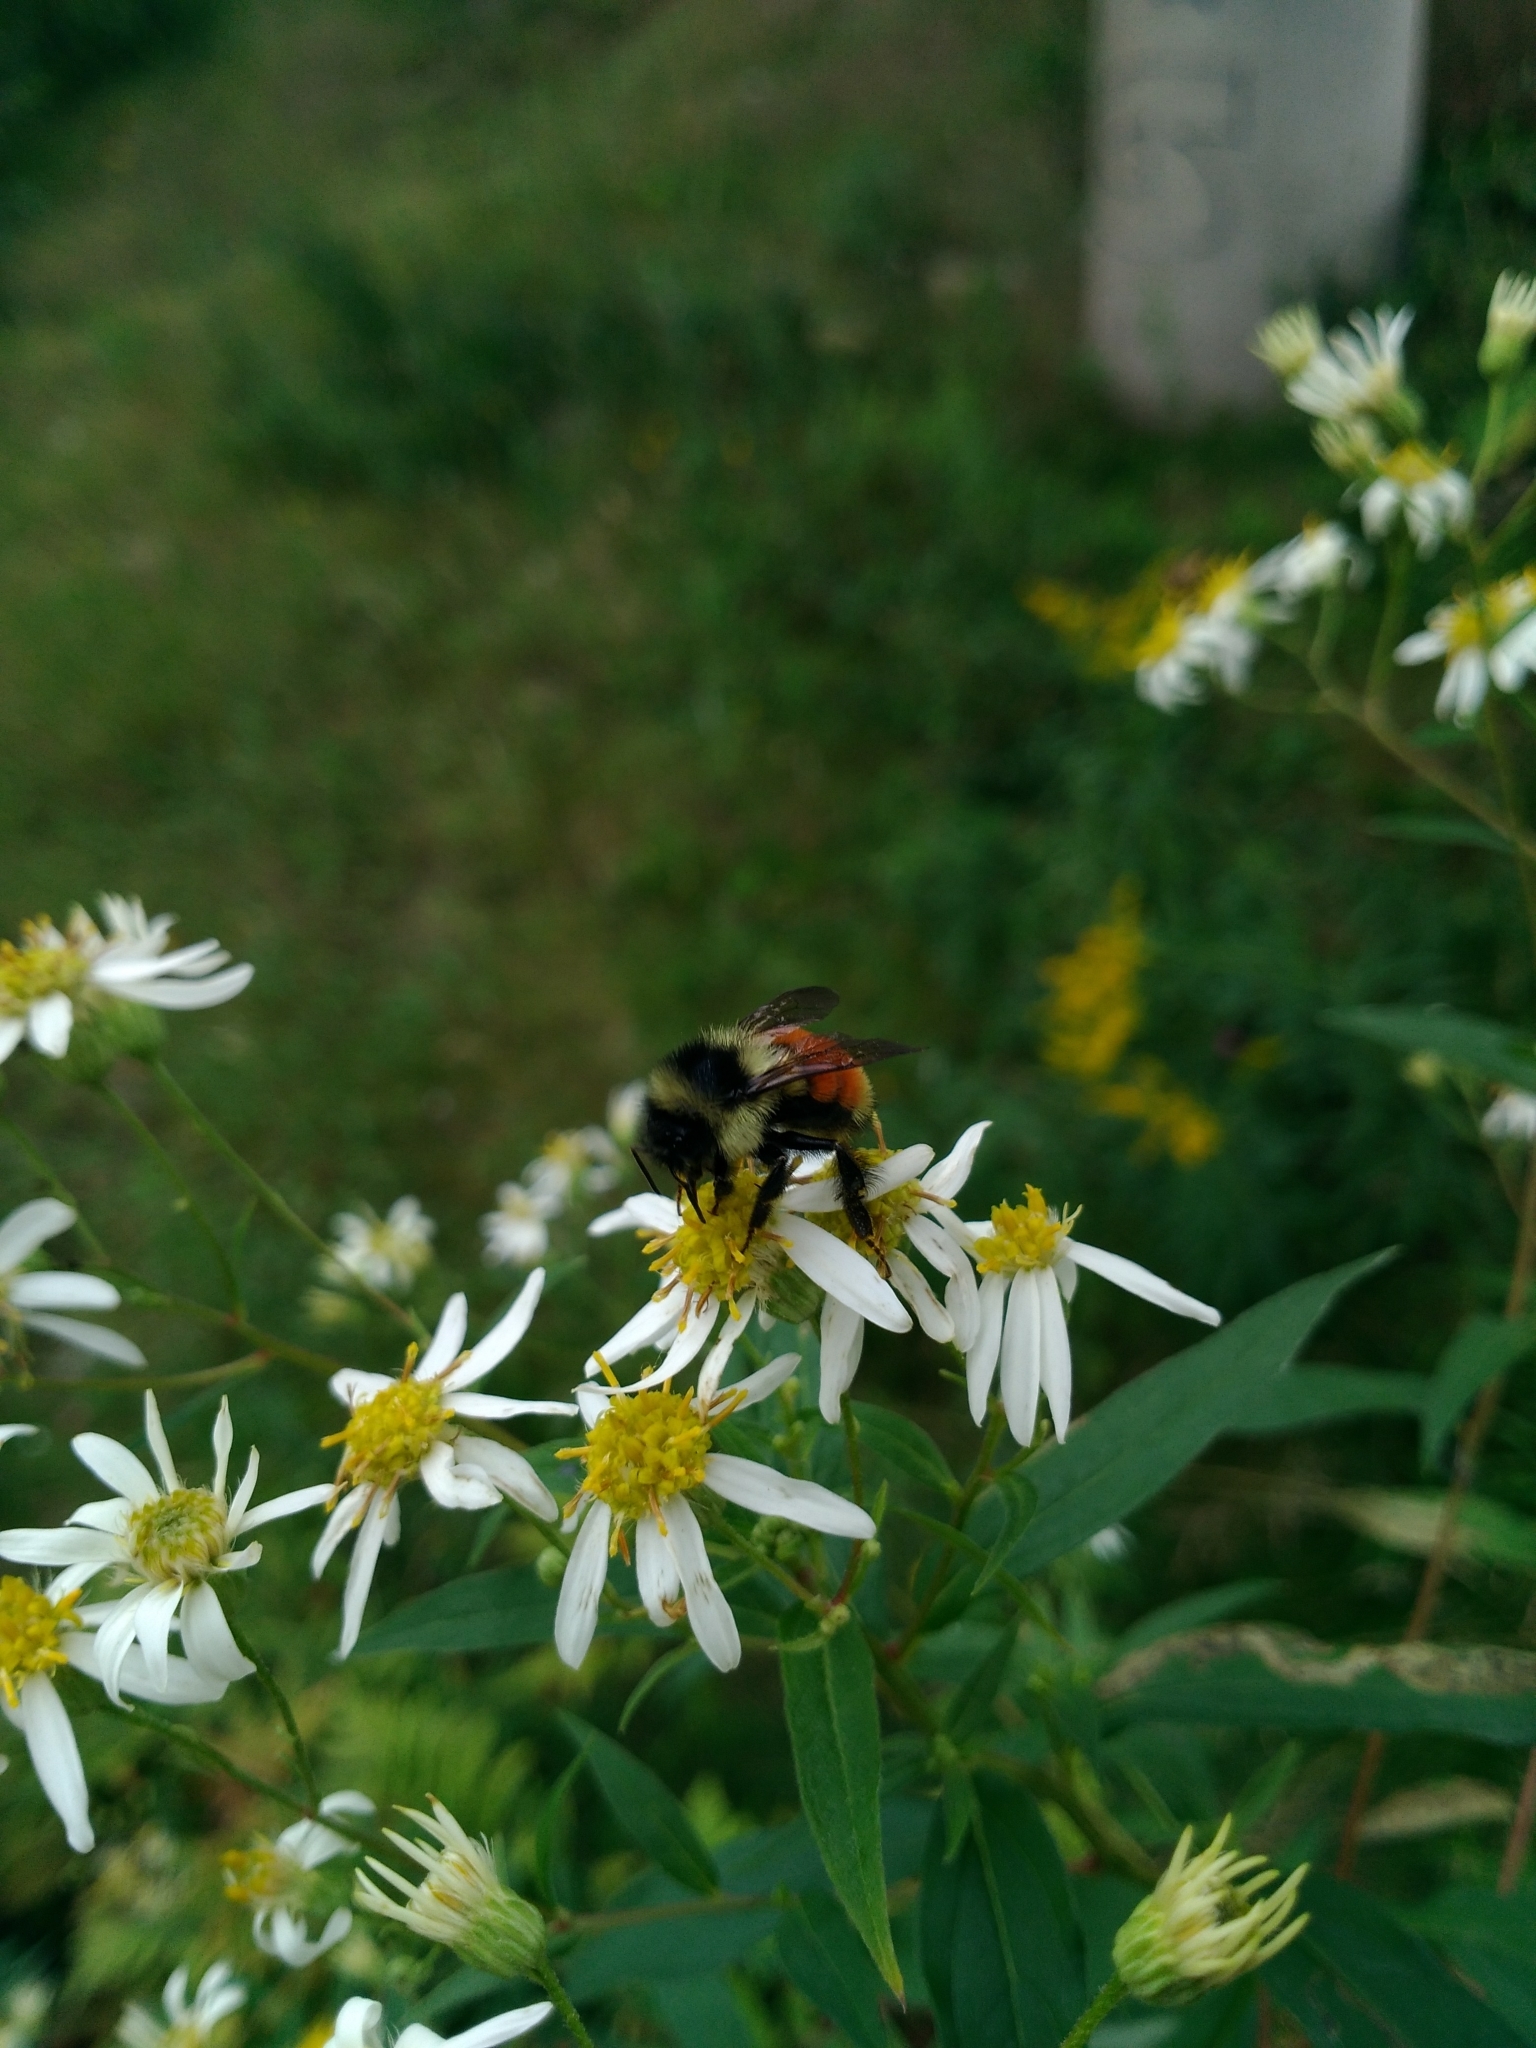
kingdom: Plantae
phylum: Tracheophyta
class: Magnoliopsida
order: Asterales
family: Asteraceae
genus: Doellingeria
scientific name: Doellingeria umbellata
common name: Flat-top white aster
